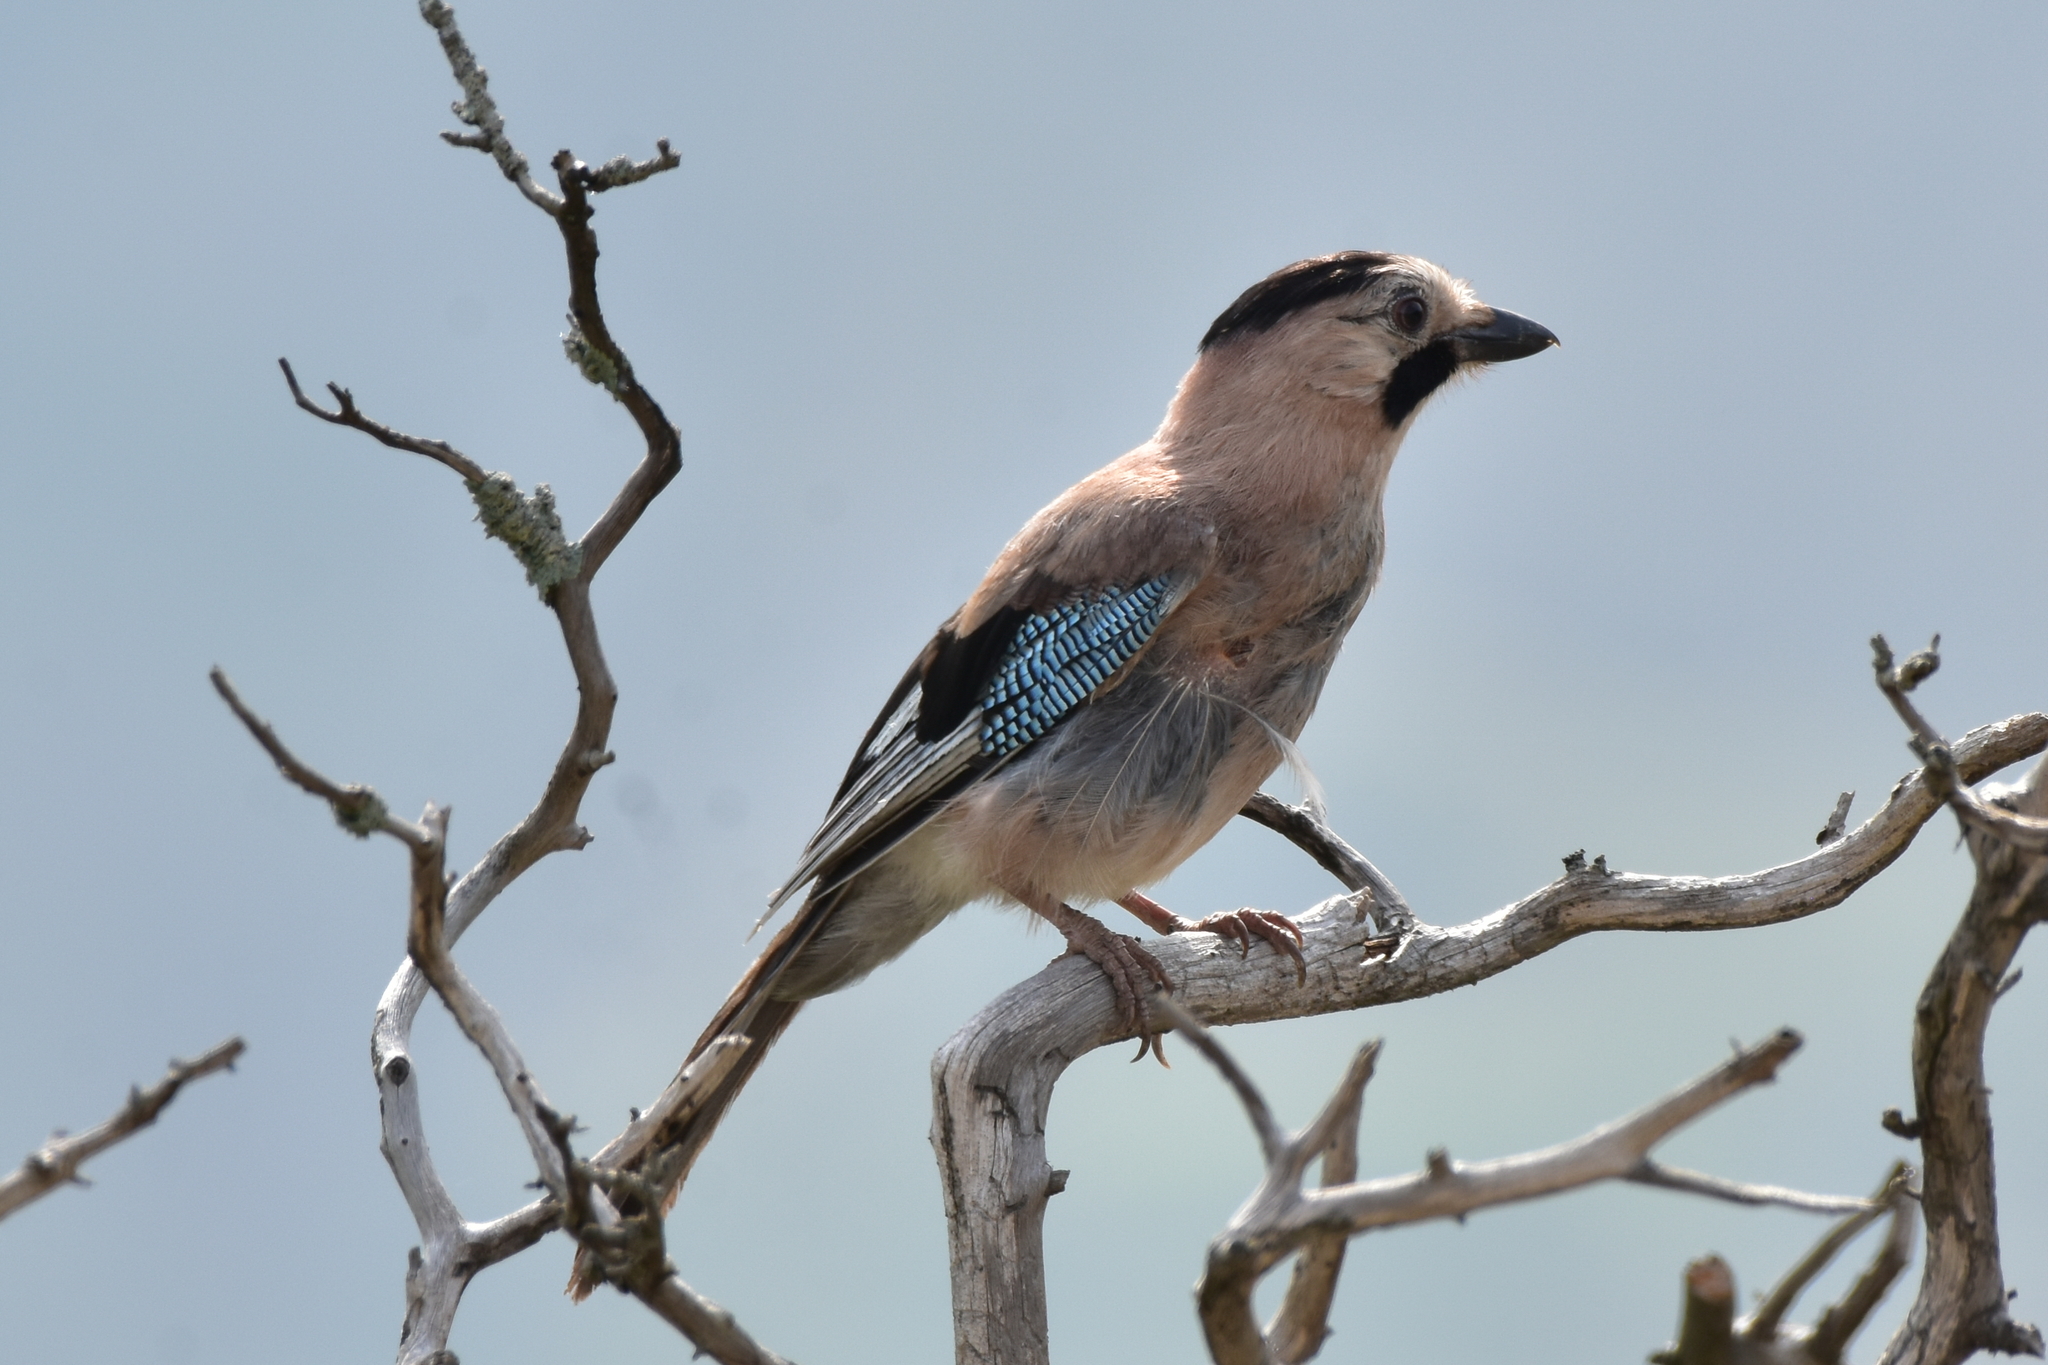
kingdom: Animalia
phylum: Chordata
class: Aves
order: Passeriformes
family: Corvidae
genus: Garrulus
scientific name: Garrulus glandarius
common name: Eurasian jay
